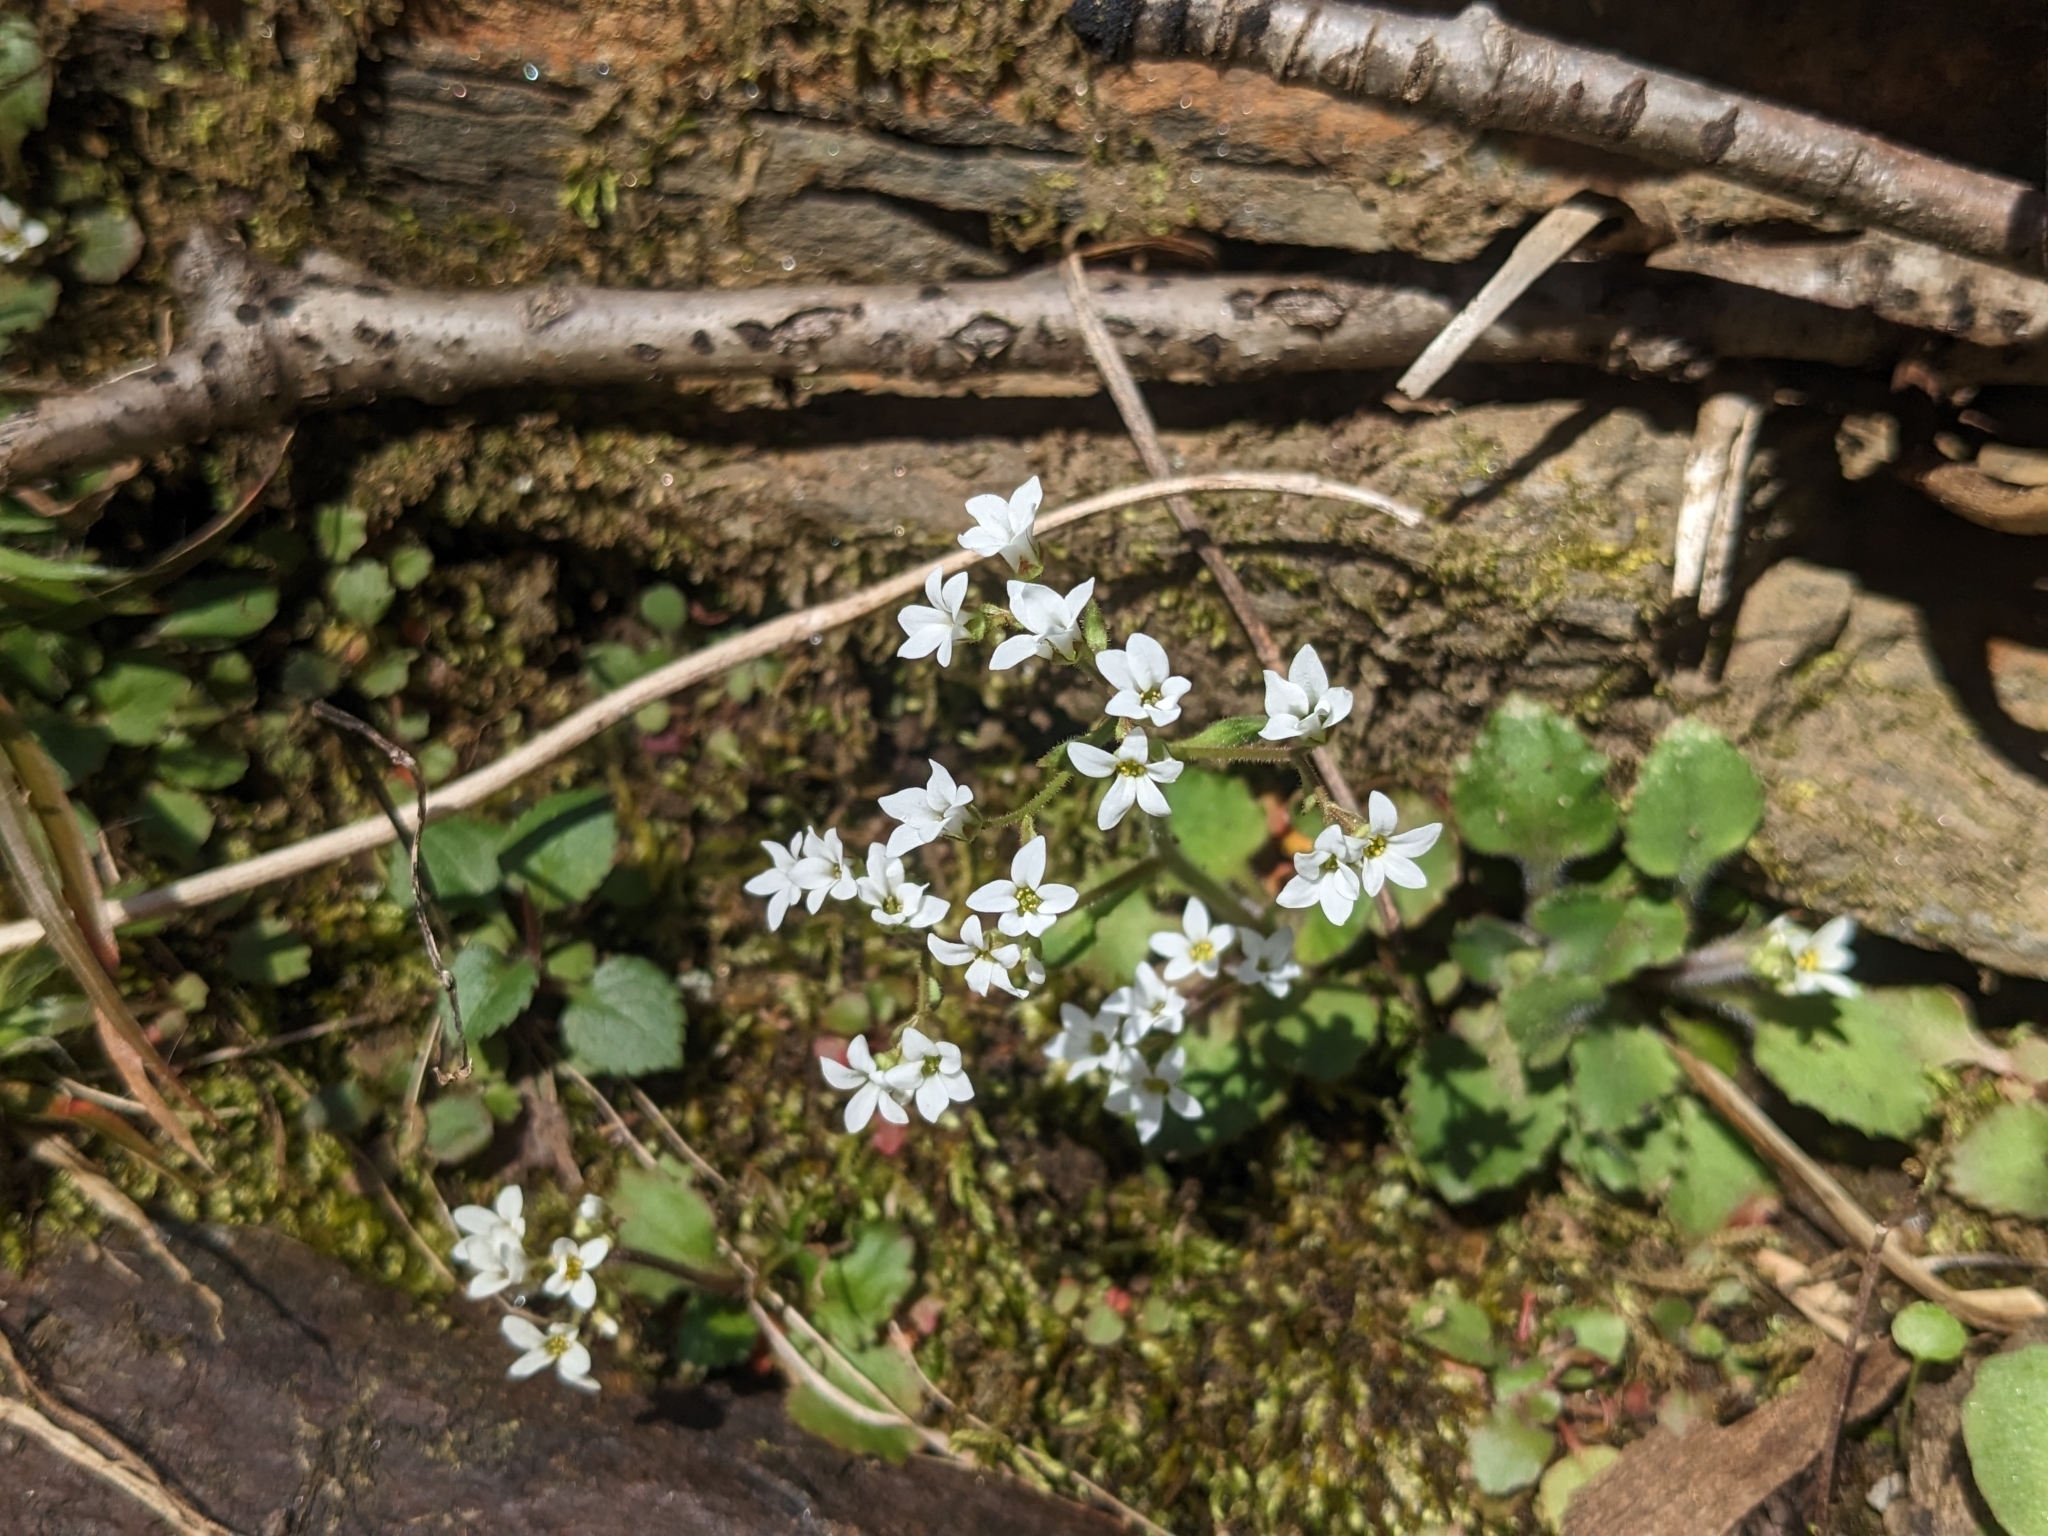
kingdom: Plantae
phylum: Tracheophyta
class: Magnoliopsida
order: Saxifragales
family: Saxifragaceae
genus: Micranthes
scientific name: Micranthes virginiensis
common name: Early saxifrage
